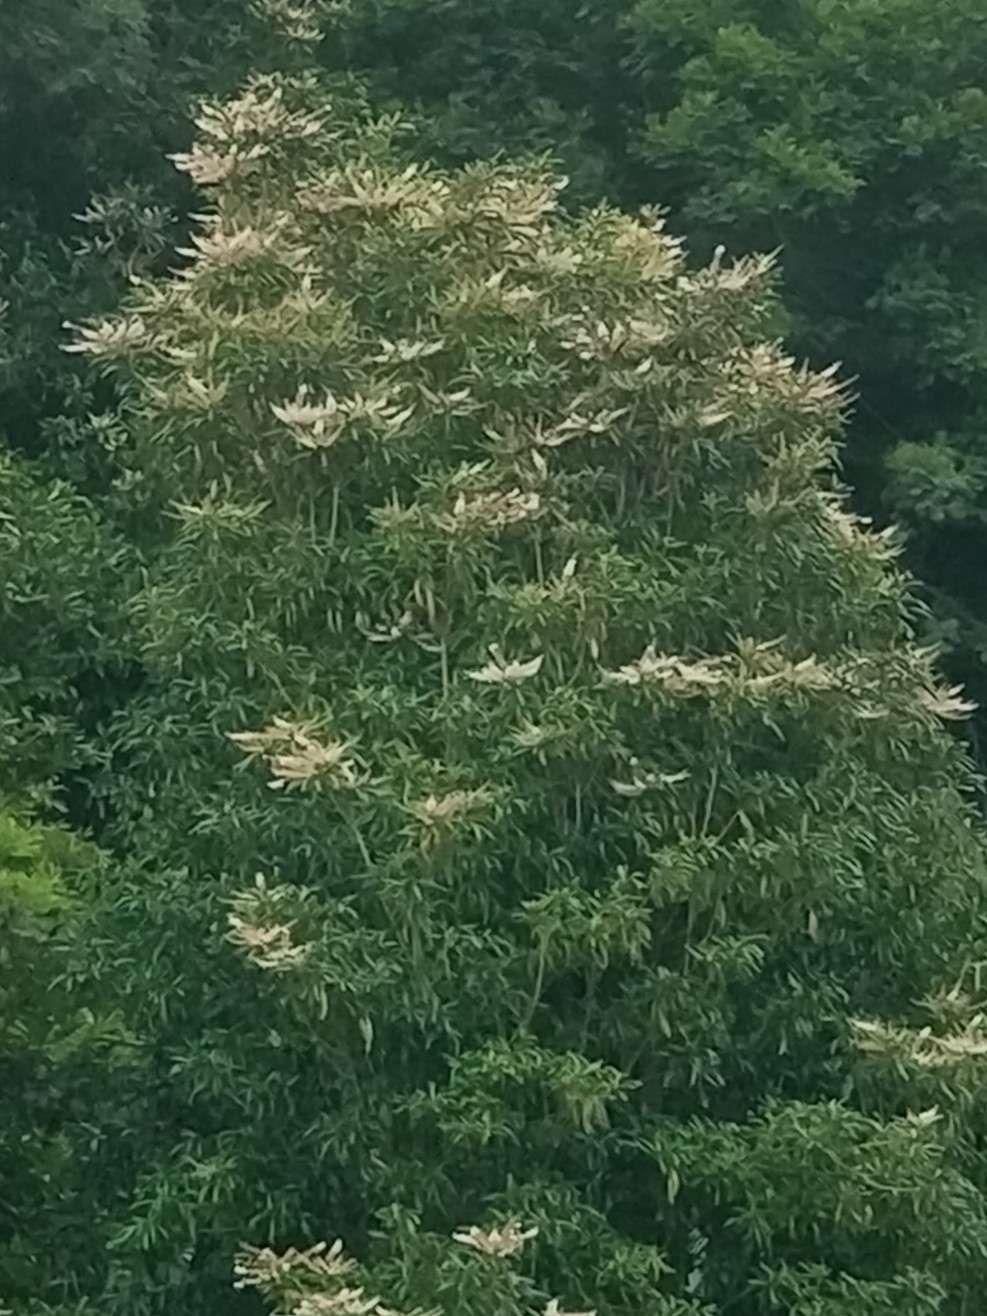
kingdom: Plantae
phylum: Tracheophyta
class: Magnoliopsida
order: Ericales
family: Clethraceae
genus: Clethra
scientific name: Clethra arborea
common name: Lily-of-the-valley-tree
